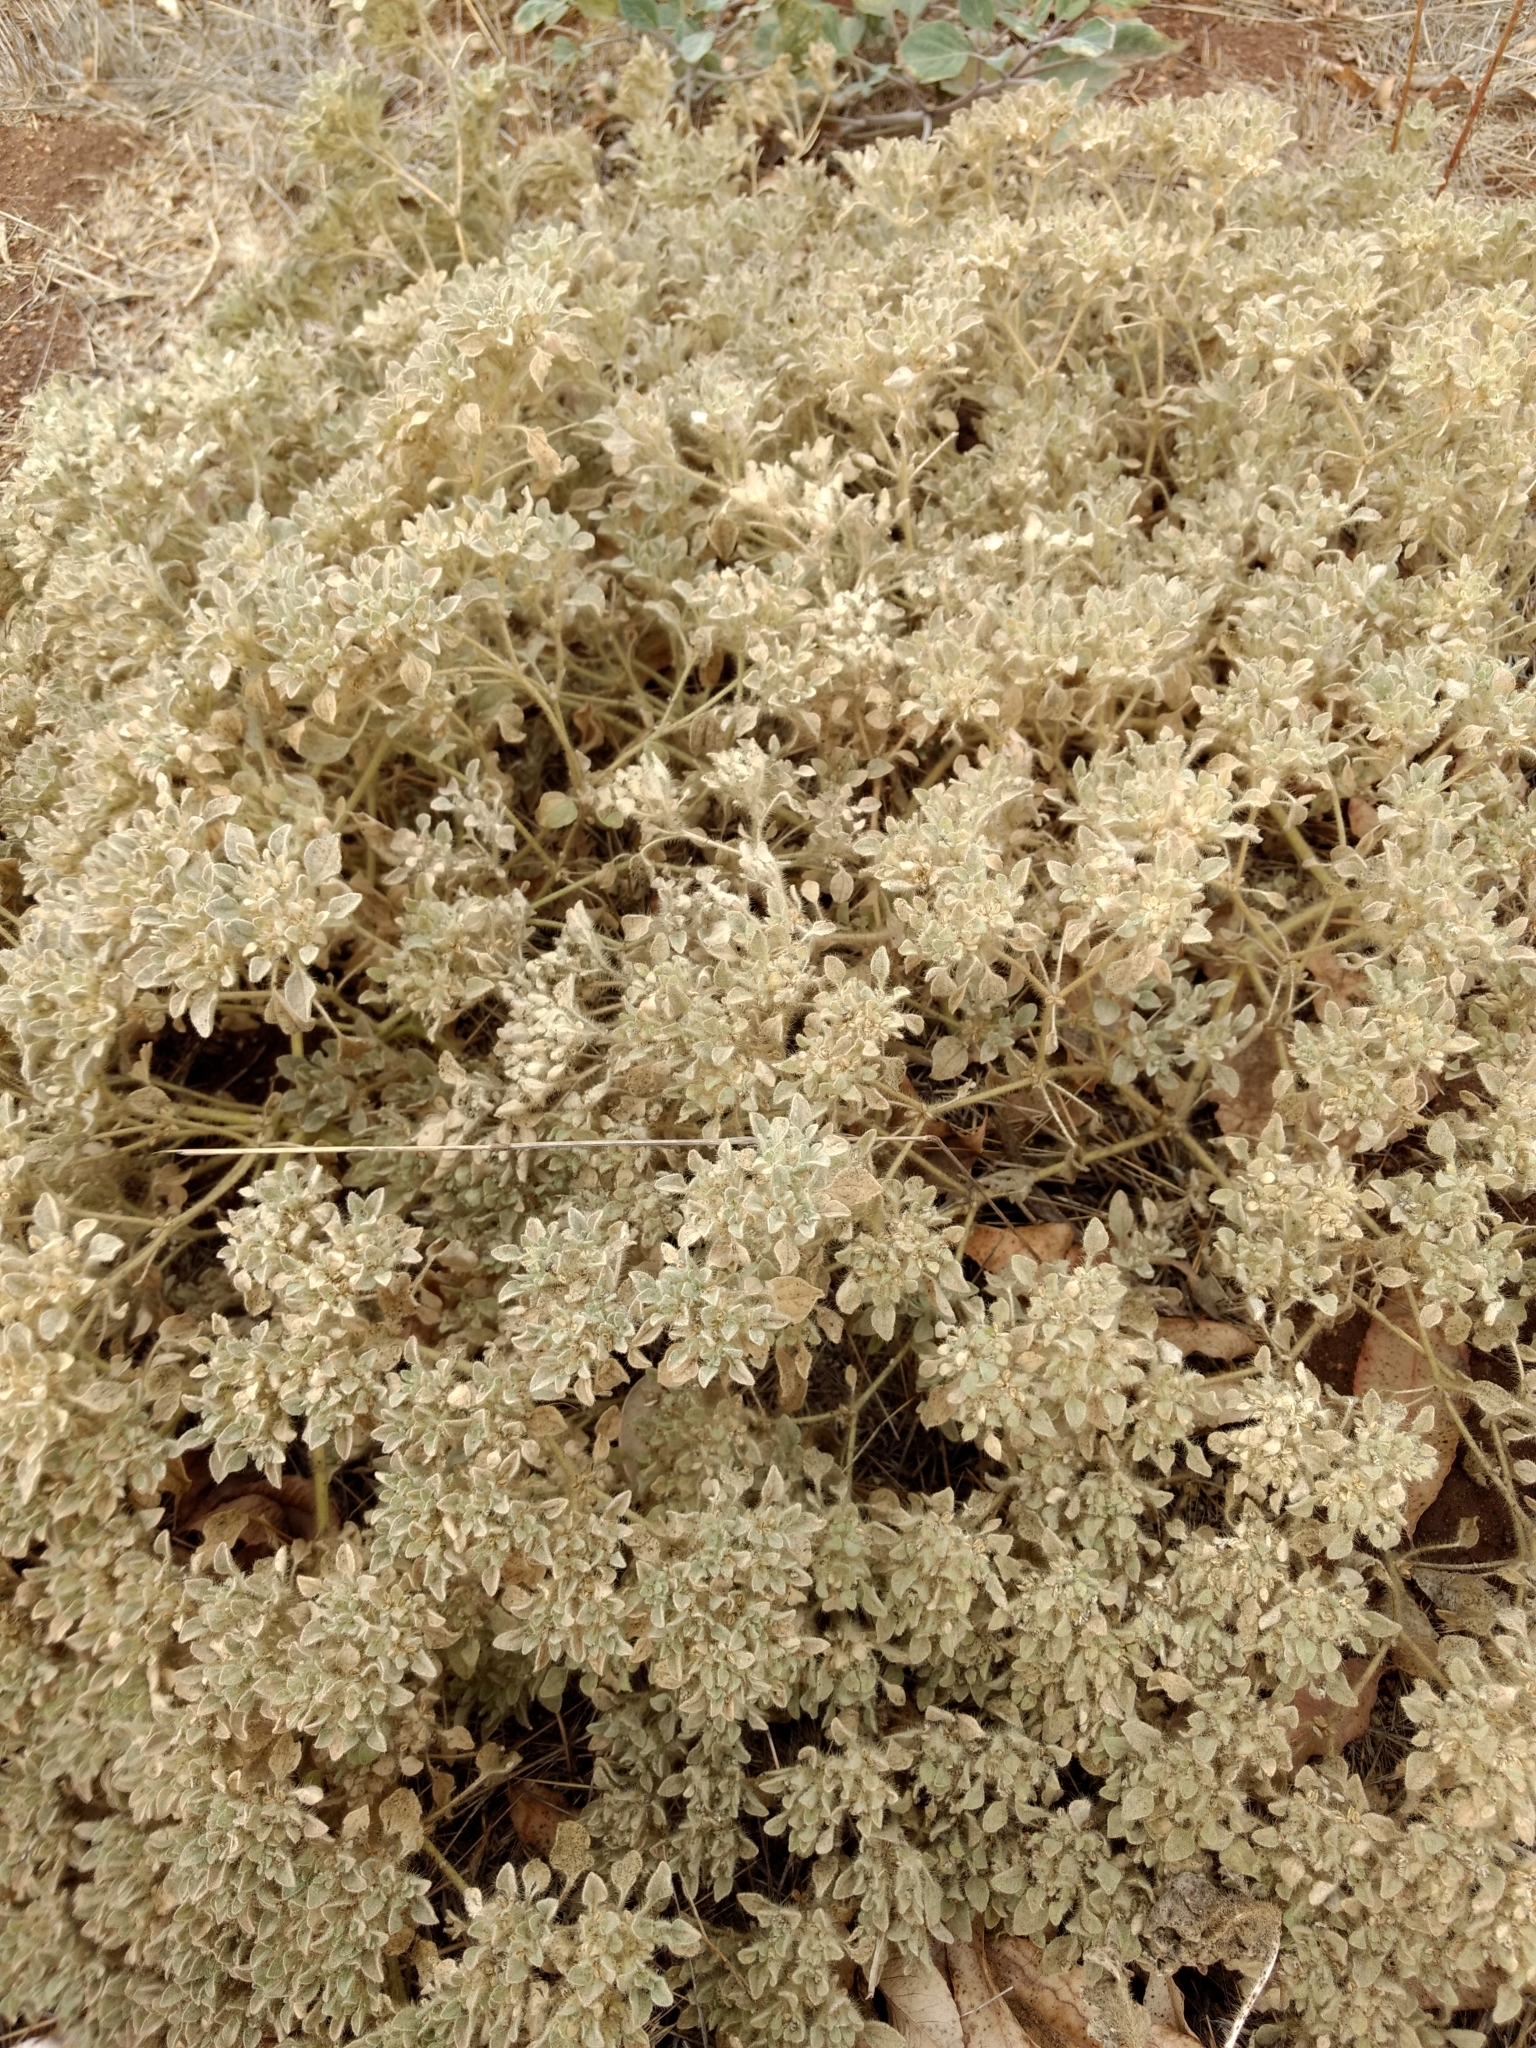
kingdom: Plantae
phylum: Tracheophyta
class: Magnoliopsida
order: Malpighiales
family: Euphorbiaceae
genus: Croton
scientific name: Croton setiger
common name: Dove weed
